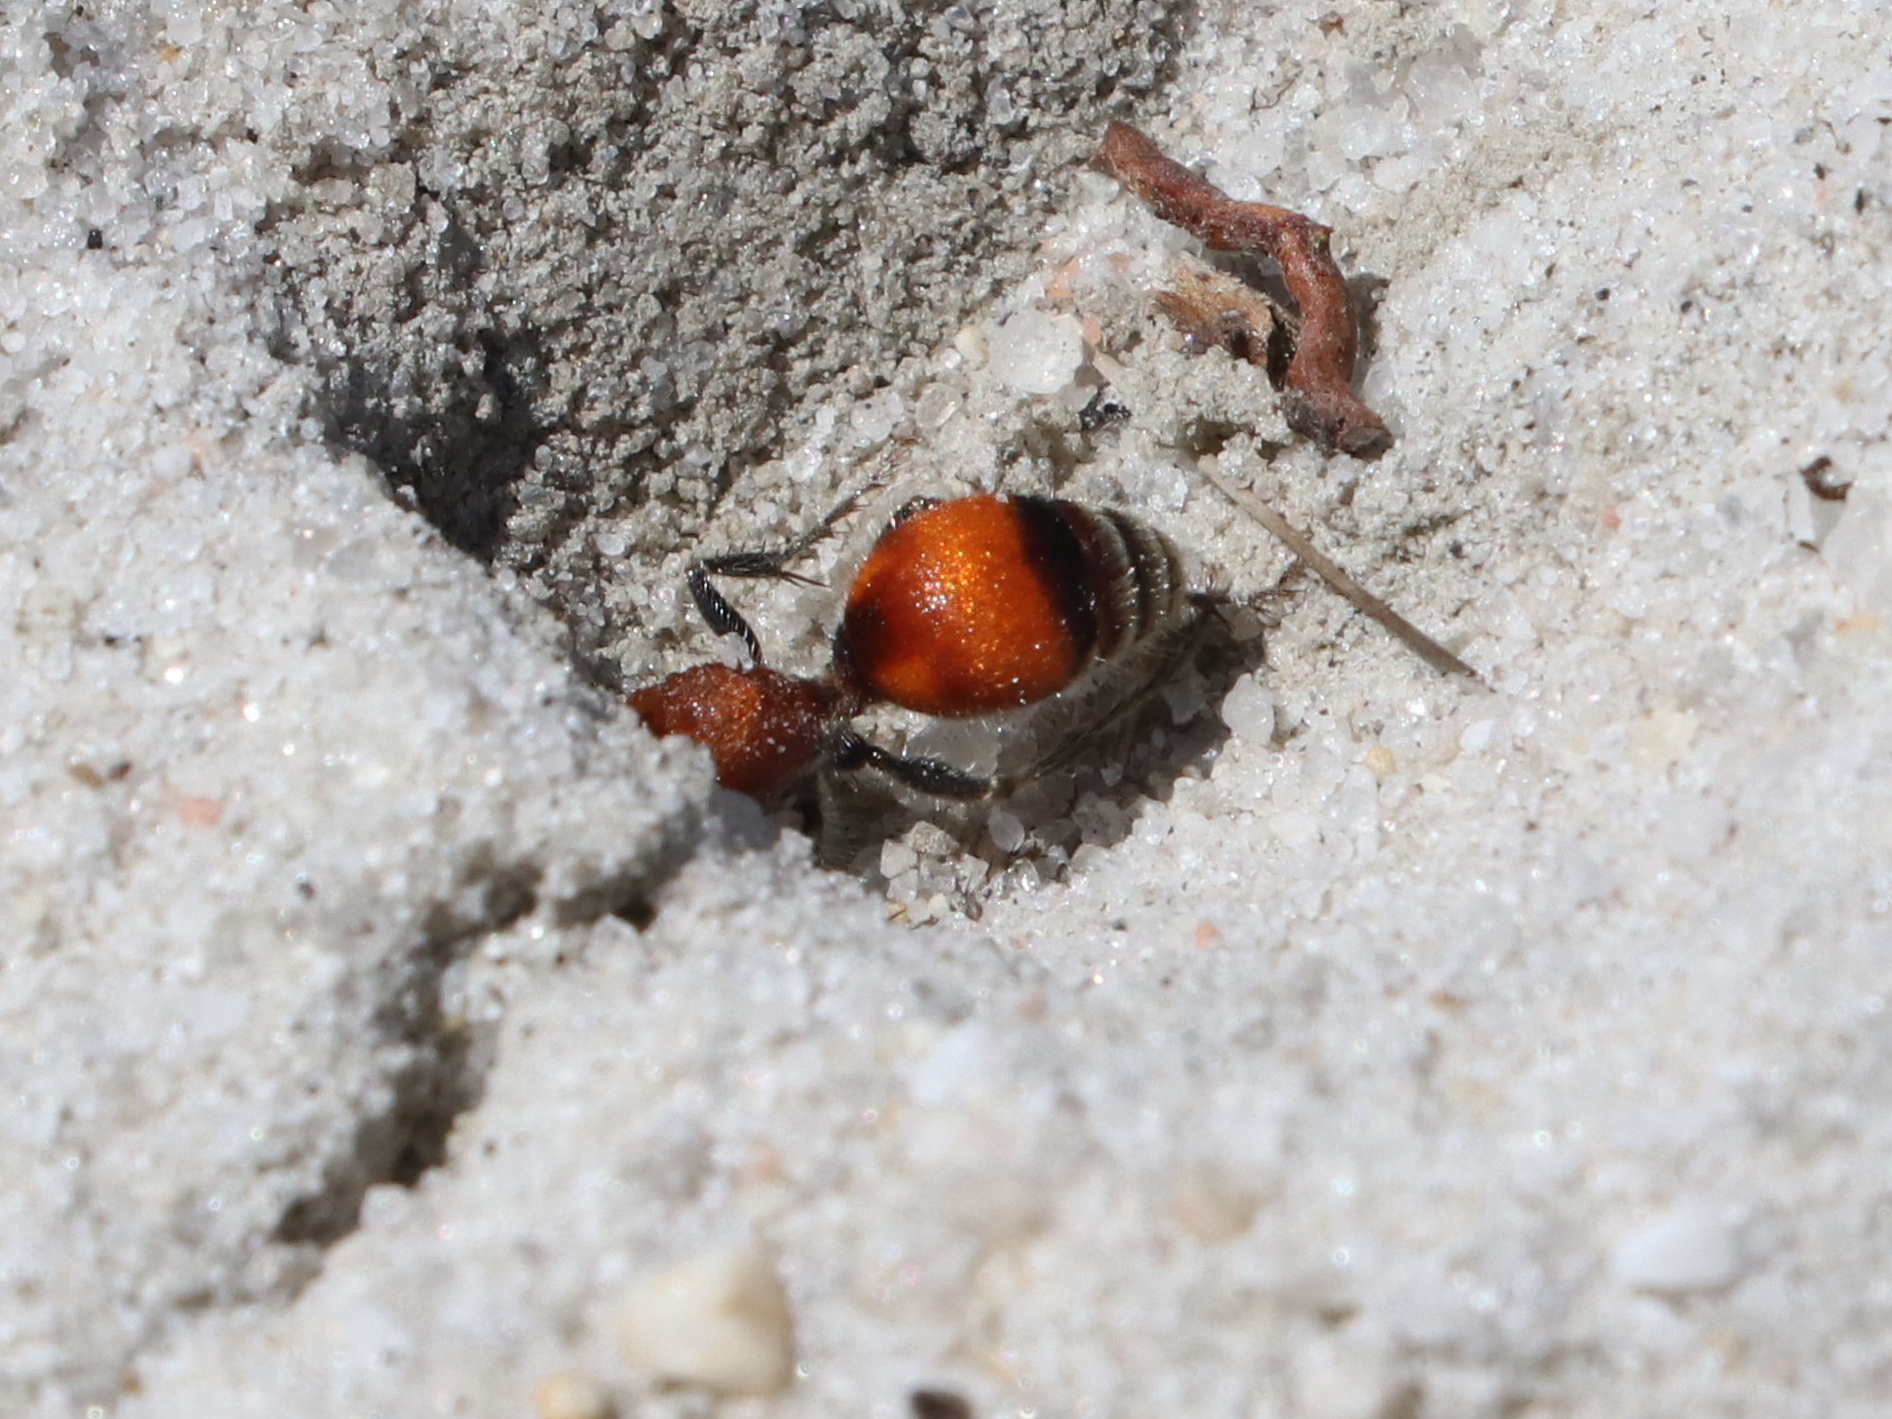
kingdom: Animalia
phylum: Arthropoda
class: Insecta
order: Hymenoptera
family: Mutillidae
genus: Dasymutilla
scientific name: Dasymutilla
